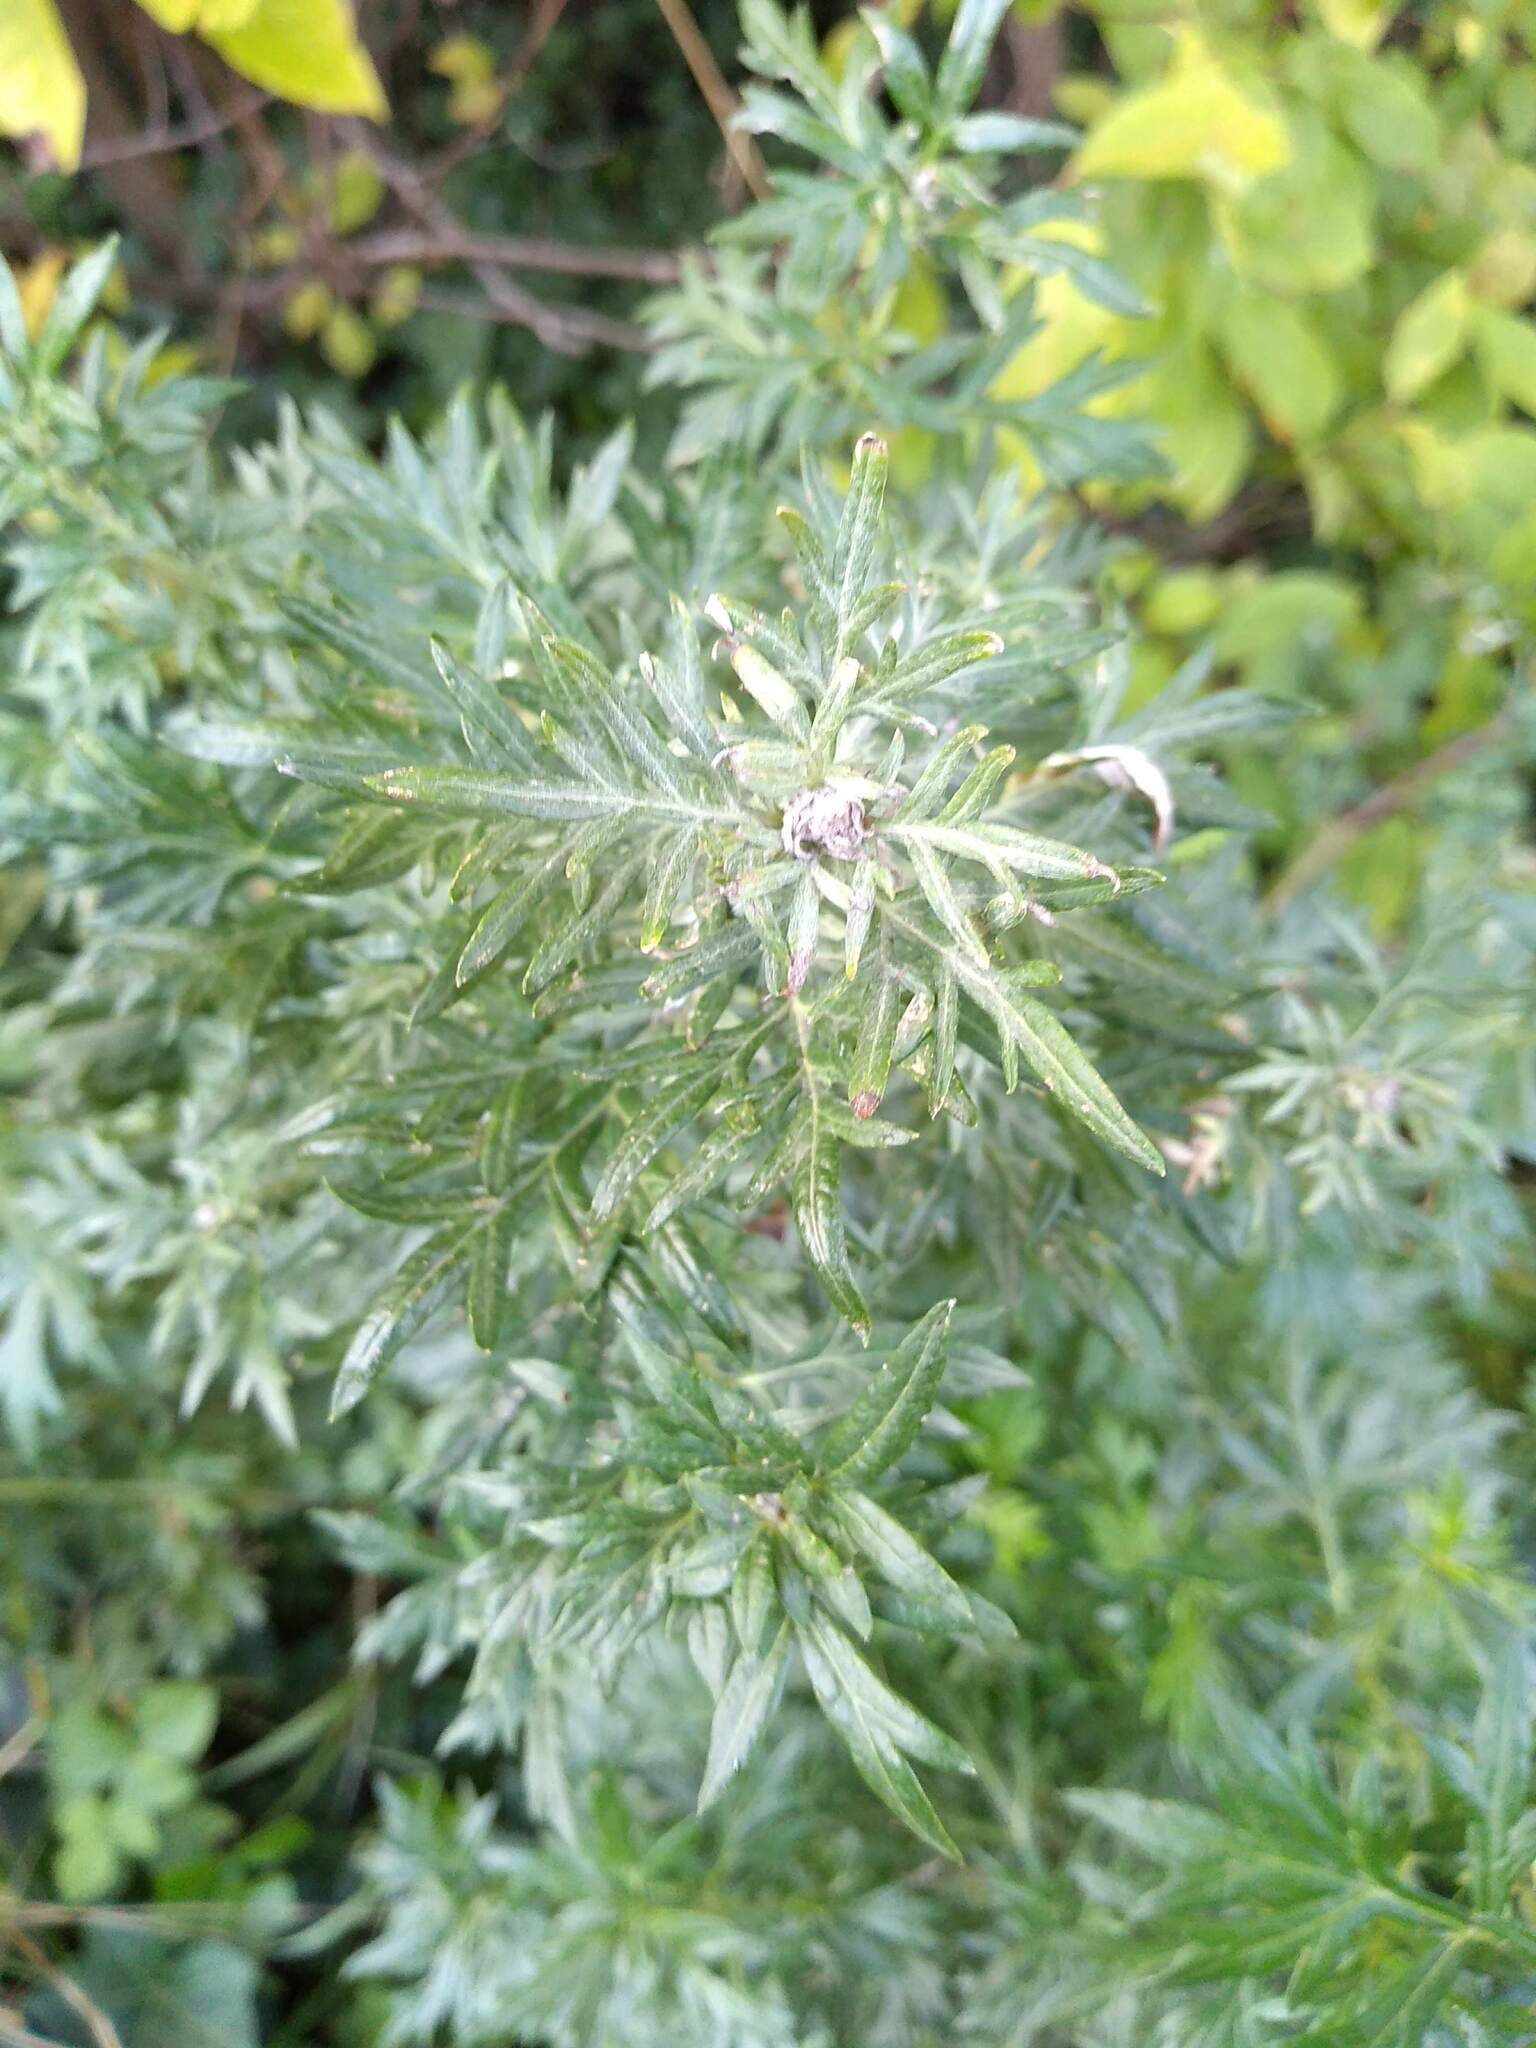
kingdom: Plantae
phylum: Tracheophyta
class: Magnoliopsida
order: Asterales
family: Asteraceae
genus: Artemisia
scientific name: Artemisia vulgaris
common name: Mugwort
